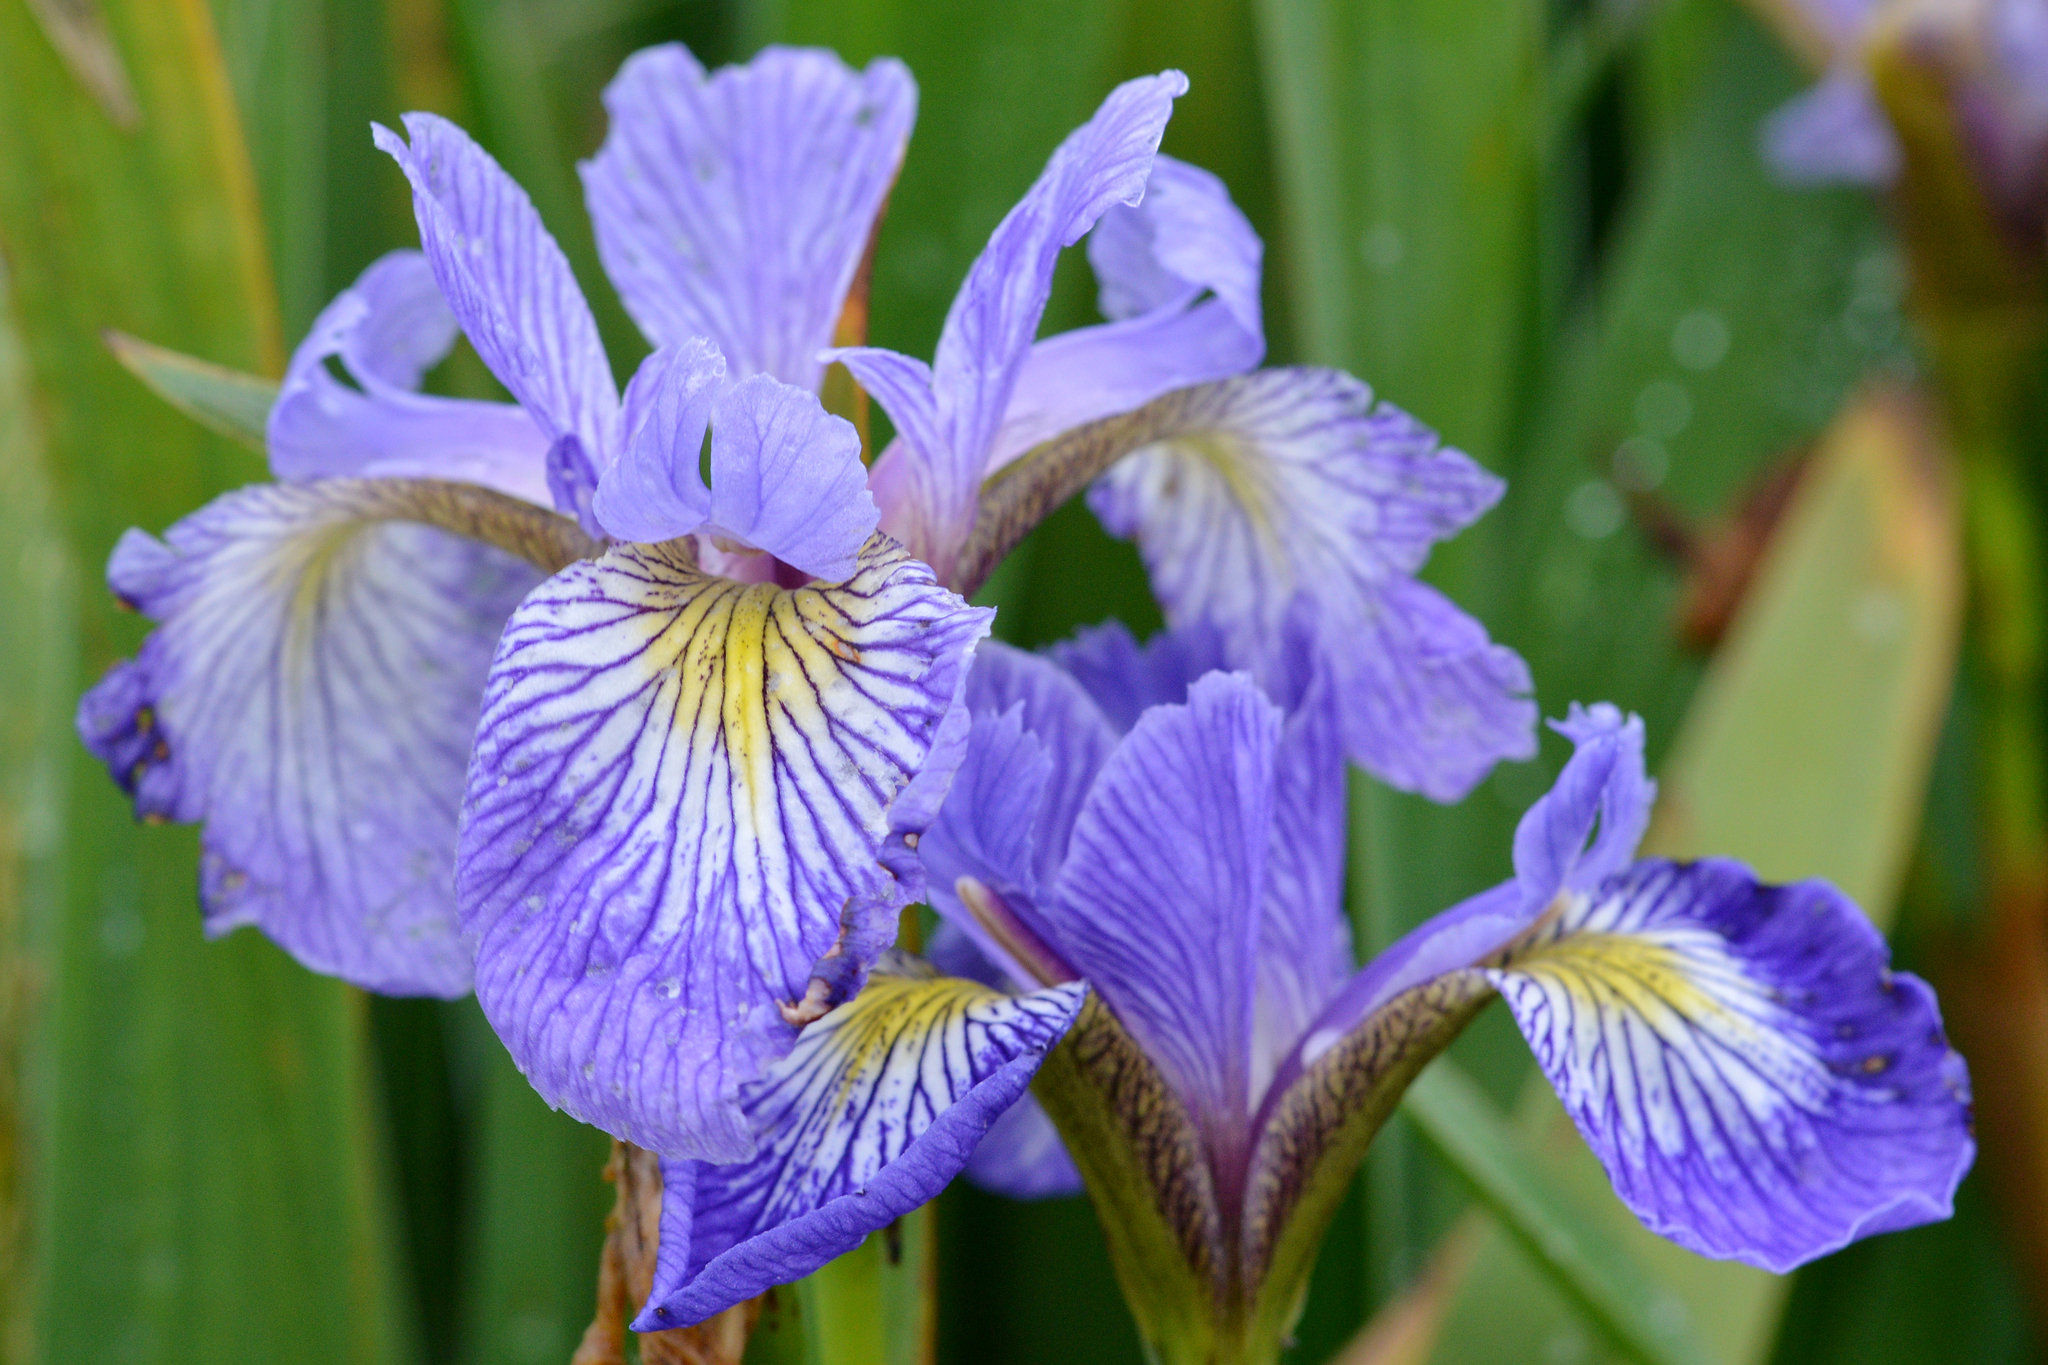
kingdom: Plantae
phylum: Tracheophyta
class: Liliopsida
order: Asparagales
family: Iridaceae
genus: Iris
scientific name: Iris versicolor
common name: Purple iris
